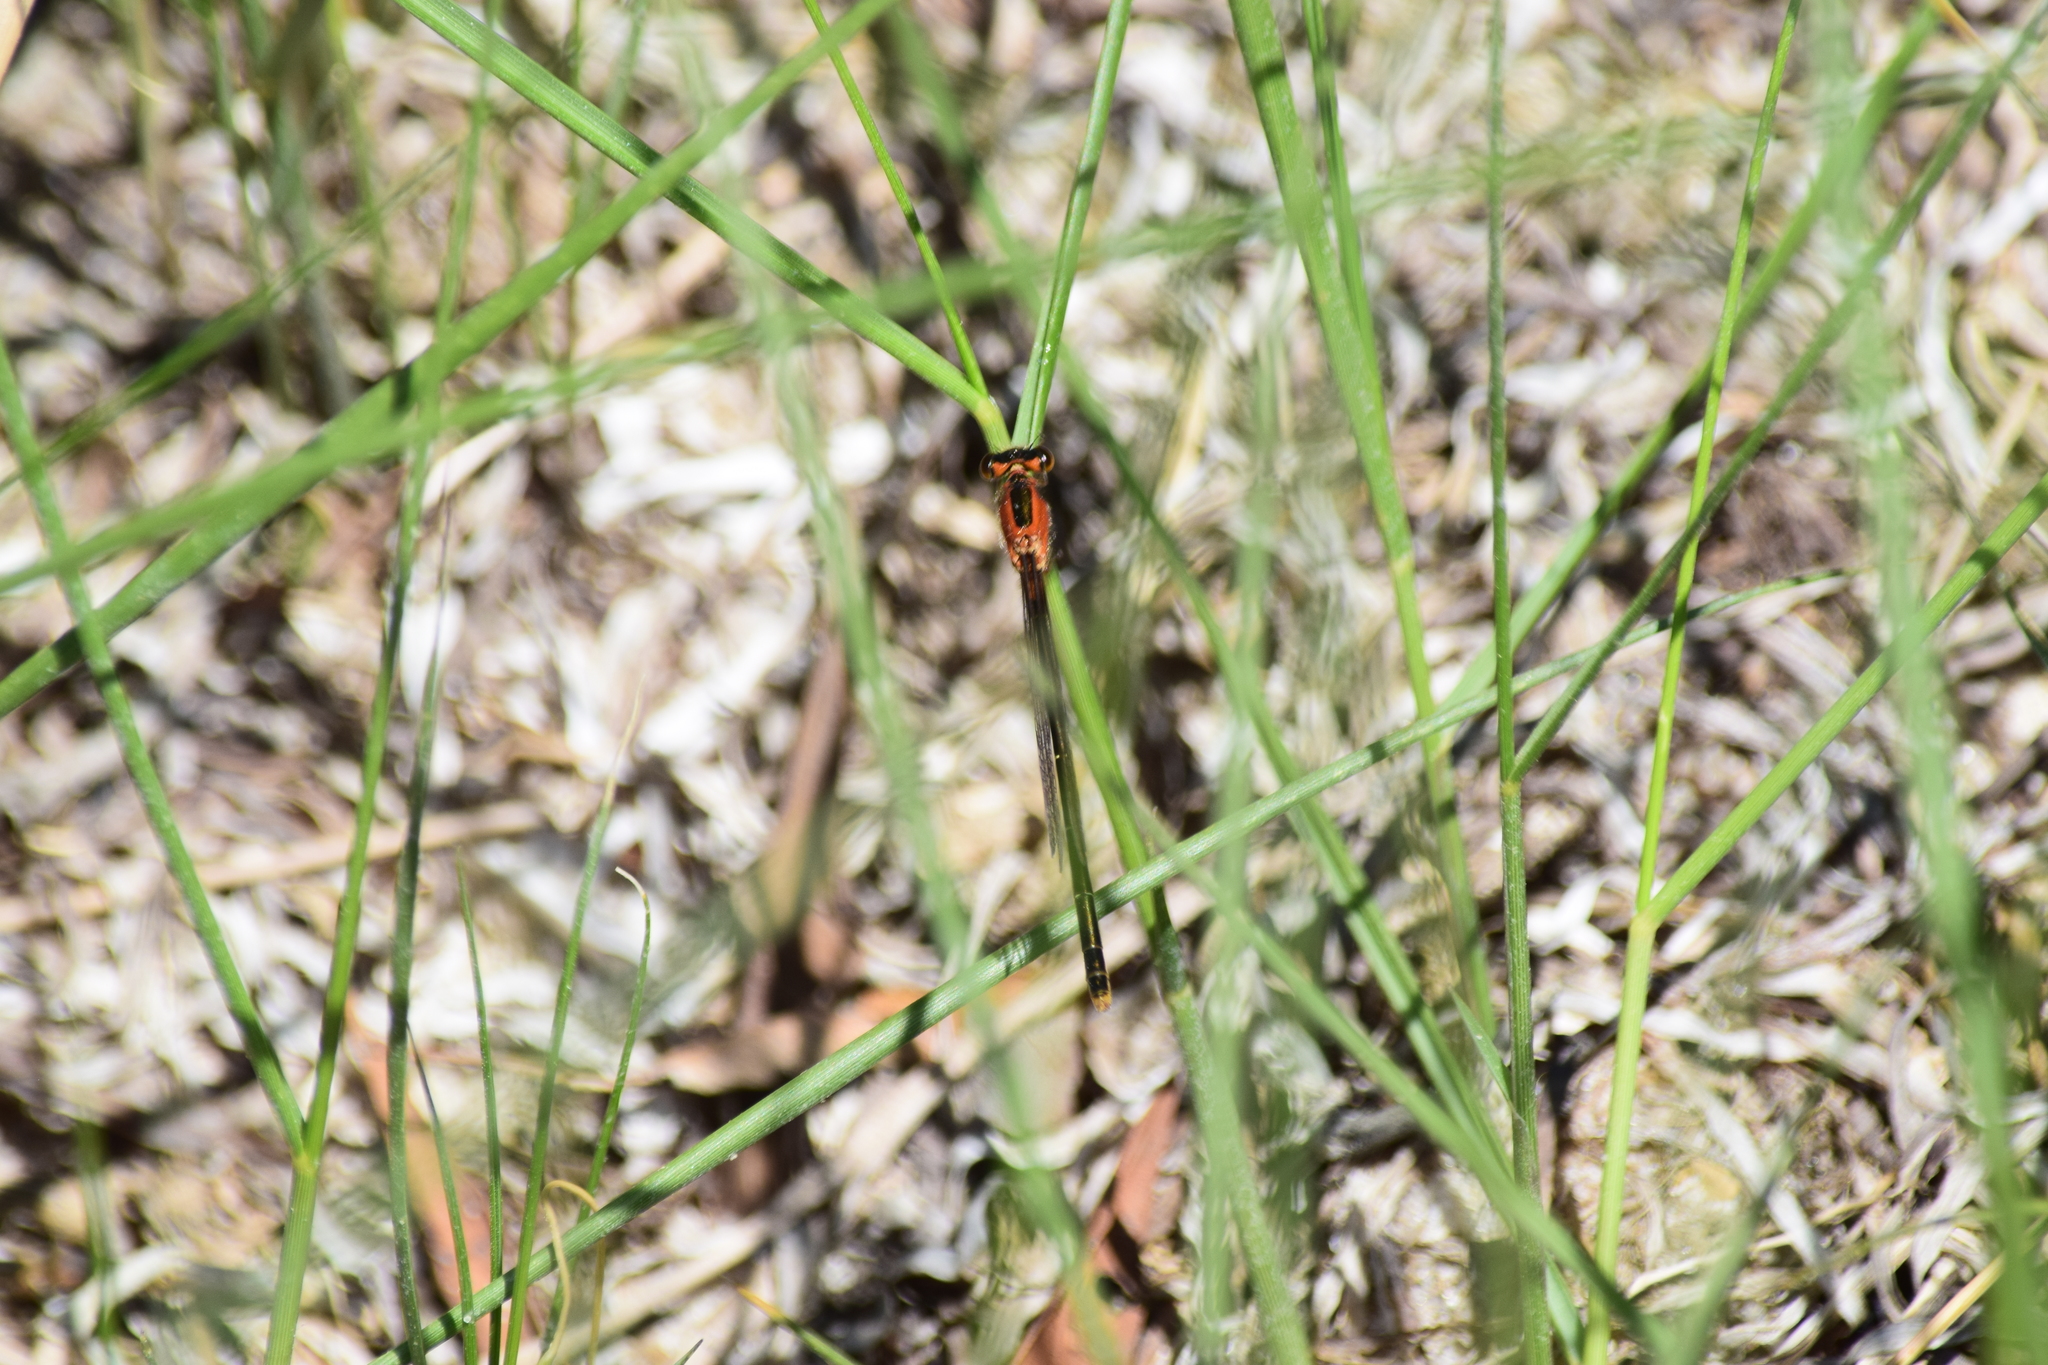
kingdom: Animalia
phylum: Arthropoda
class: Insecta
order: Odonata
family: Coenagrionidae
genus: Ischnura
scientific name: Ischnura ramburii
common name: Rambur's forktail
